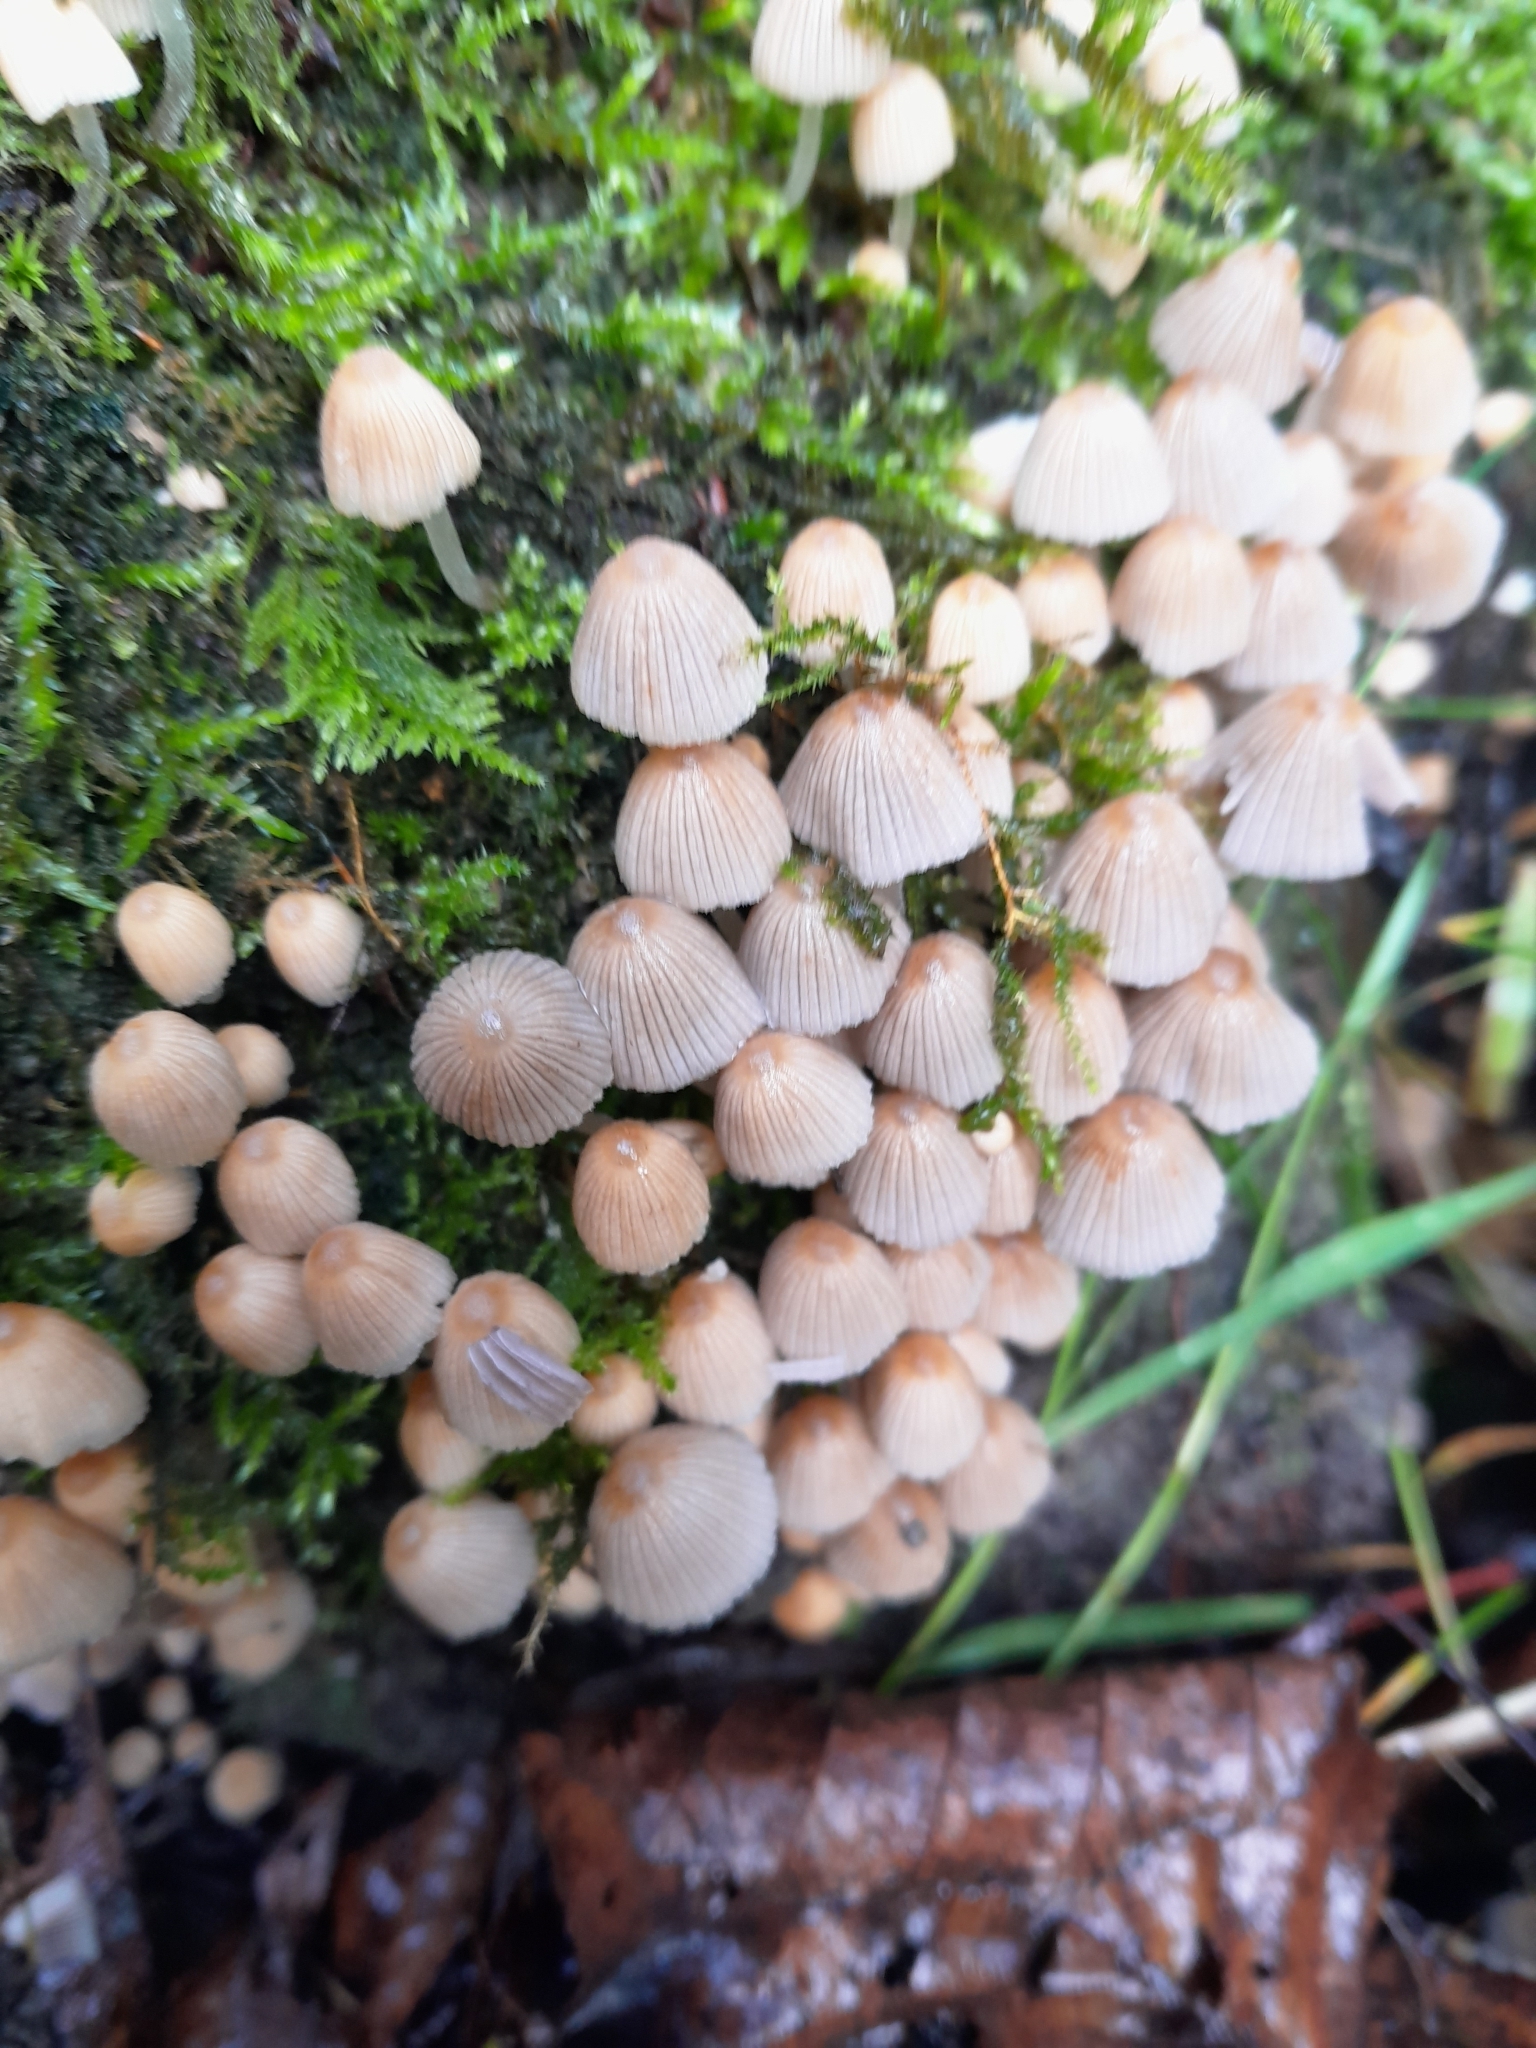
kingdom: Fungi
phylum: Basidiomycota
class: Agaricomycetes
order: Agaricales
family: Psathyrellaceae
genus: Coprinellus
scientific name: Coprinellus disseminatus
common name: Fairies' bonnets
